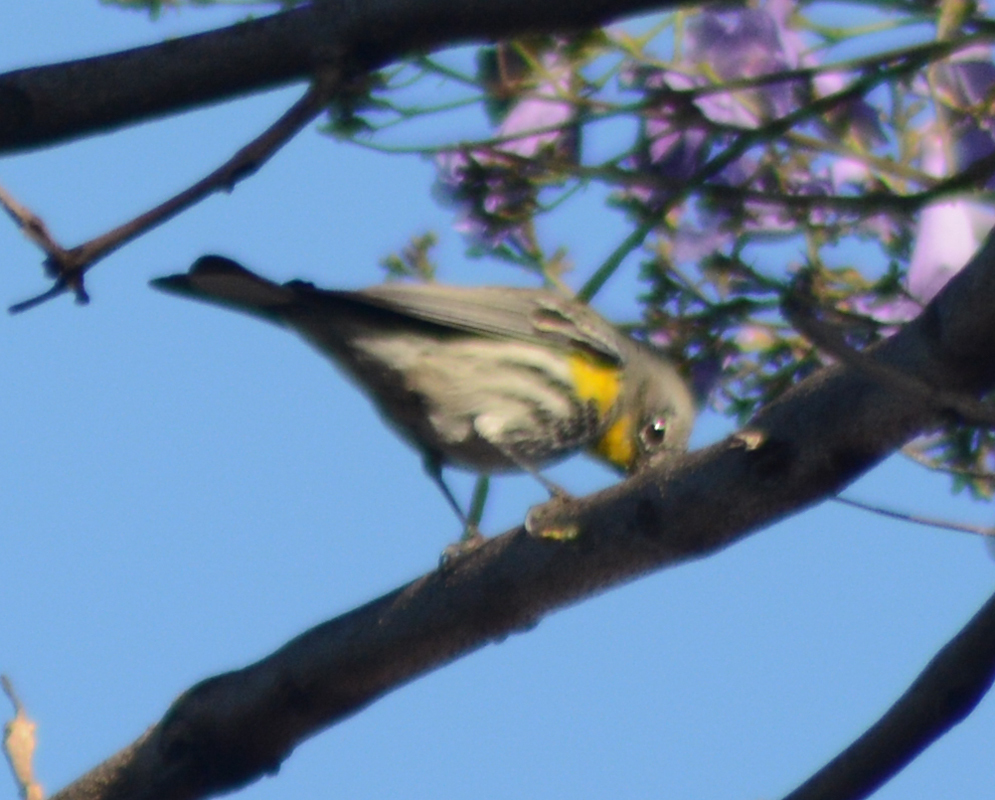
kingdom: Animalia
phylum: Chordata
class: Aves
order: Passeriformes
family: Parulidae
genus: Setophaga
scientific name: Setophaga coronata
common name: Myrtle warbler
